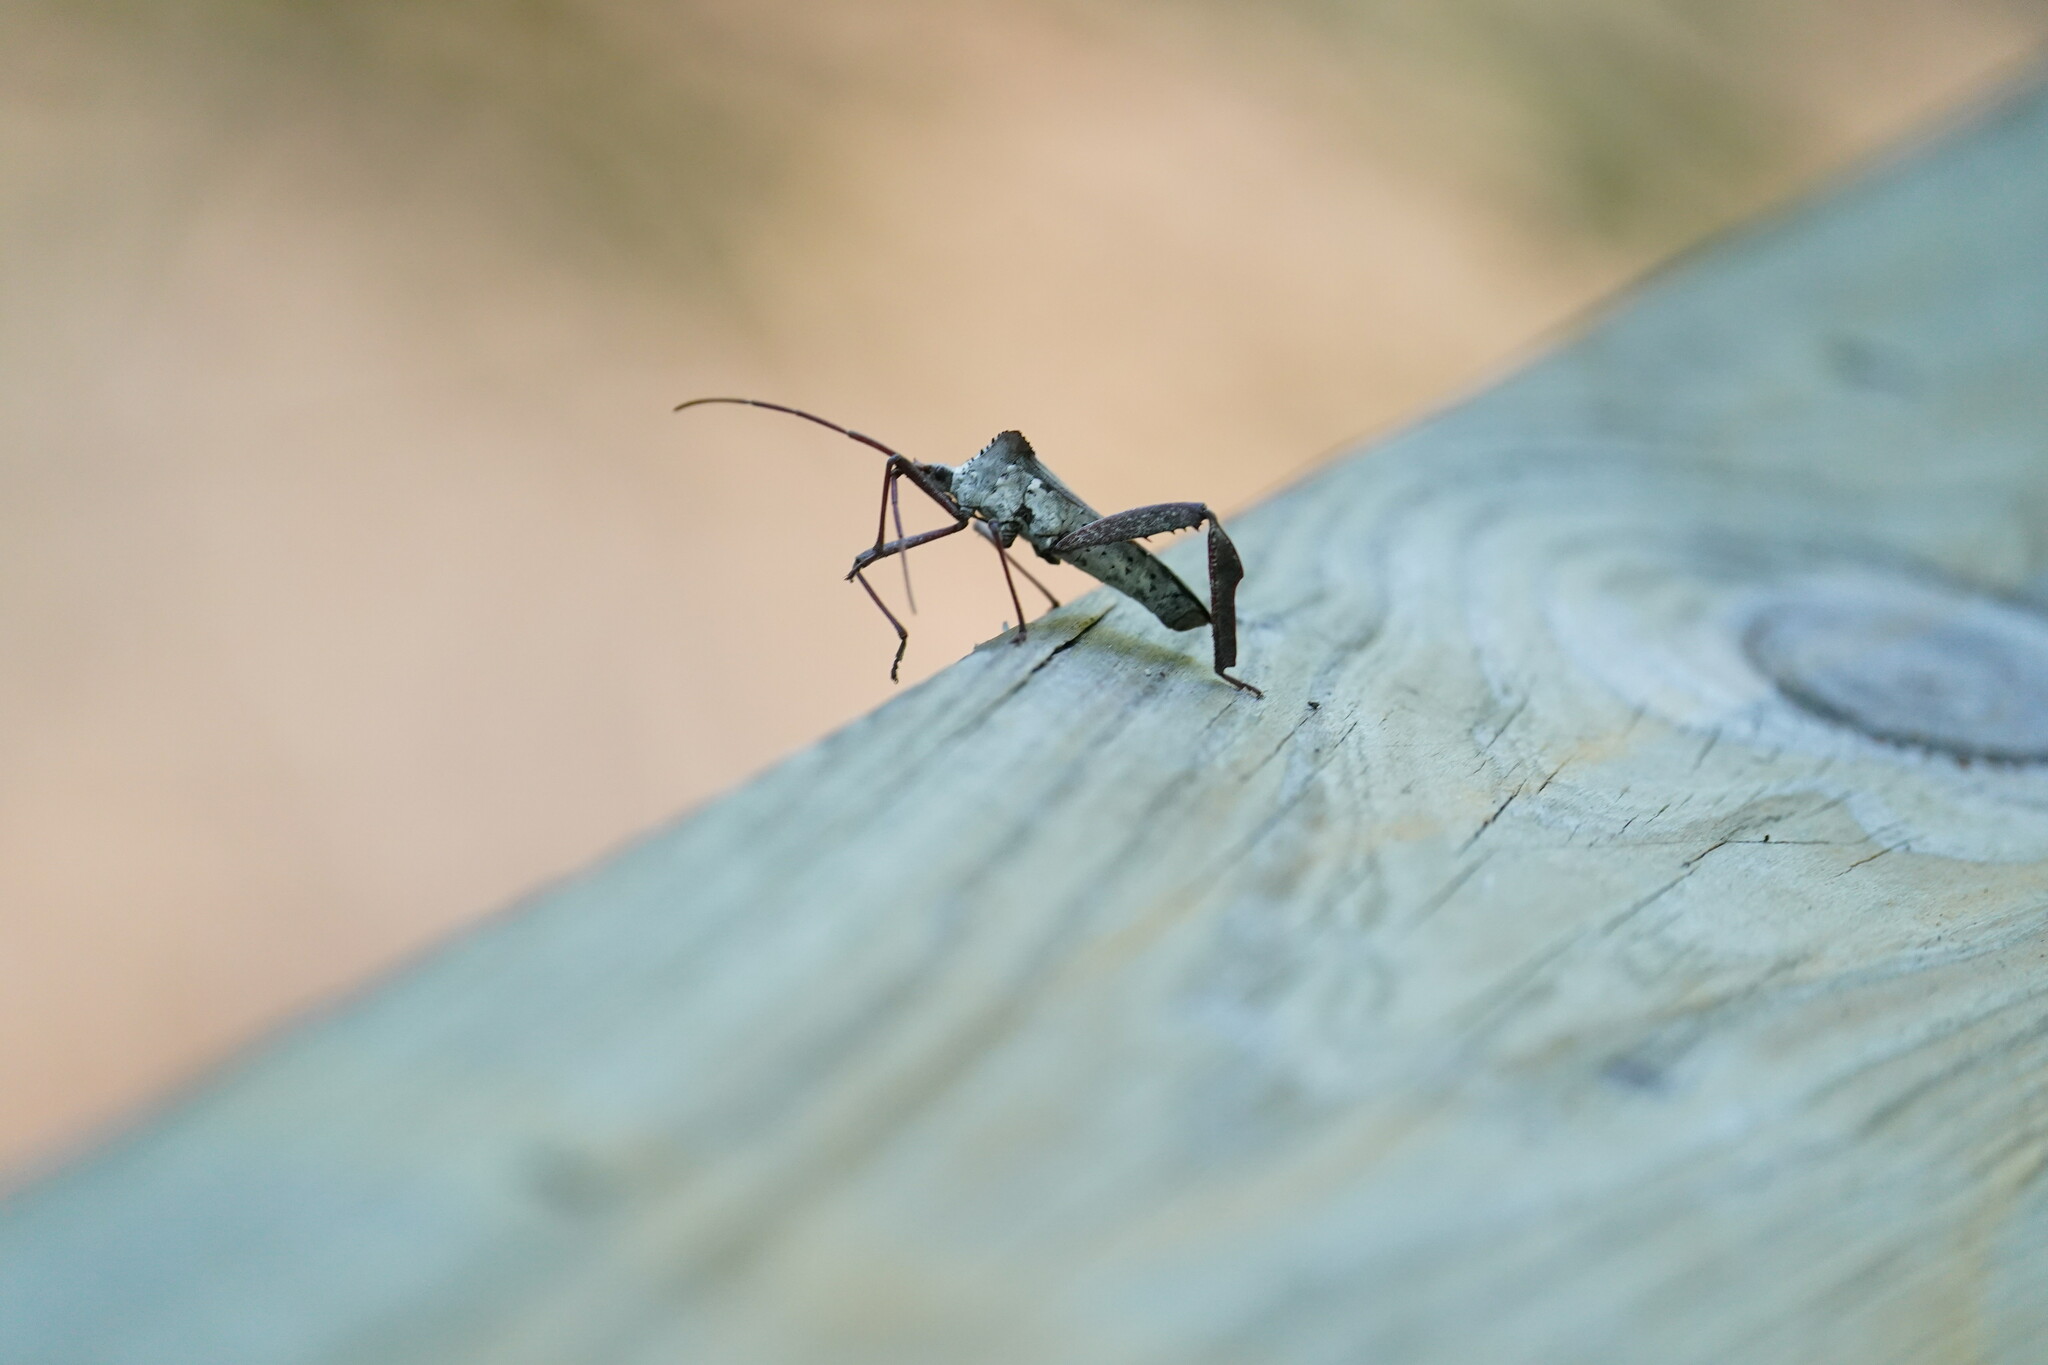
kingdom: Animalia
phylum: Arthropoda
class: Insecta
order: Hemiptera
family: Coreidae
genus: Acanthocephala
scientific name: Acanthocephala declivis
